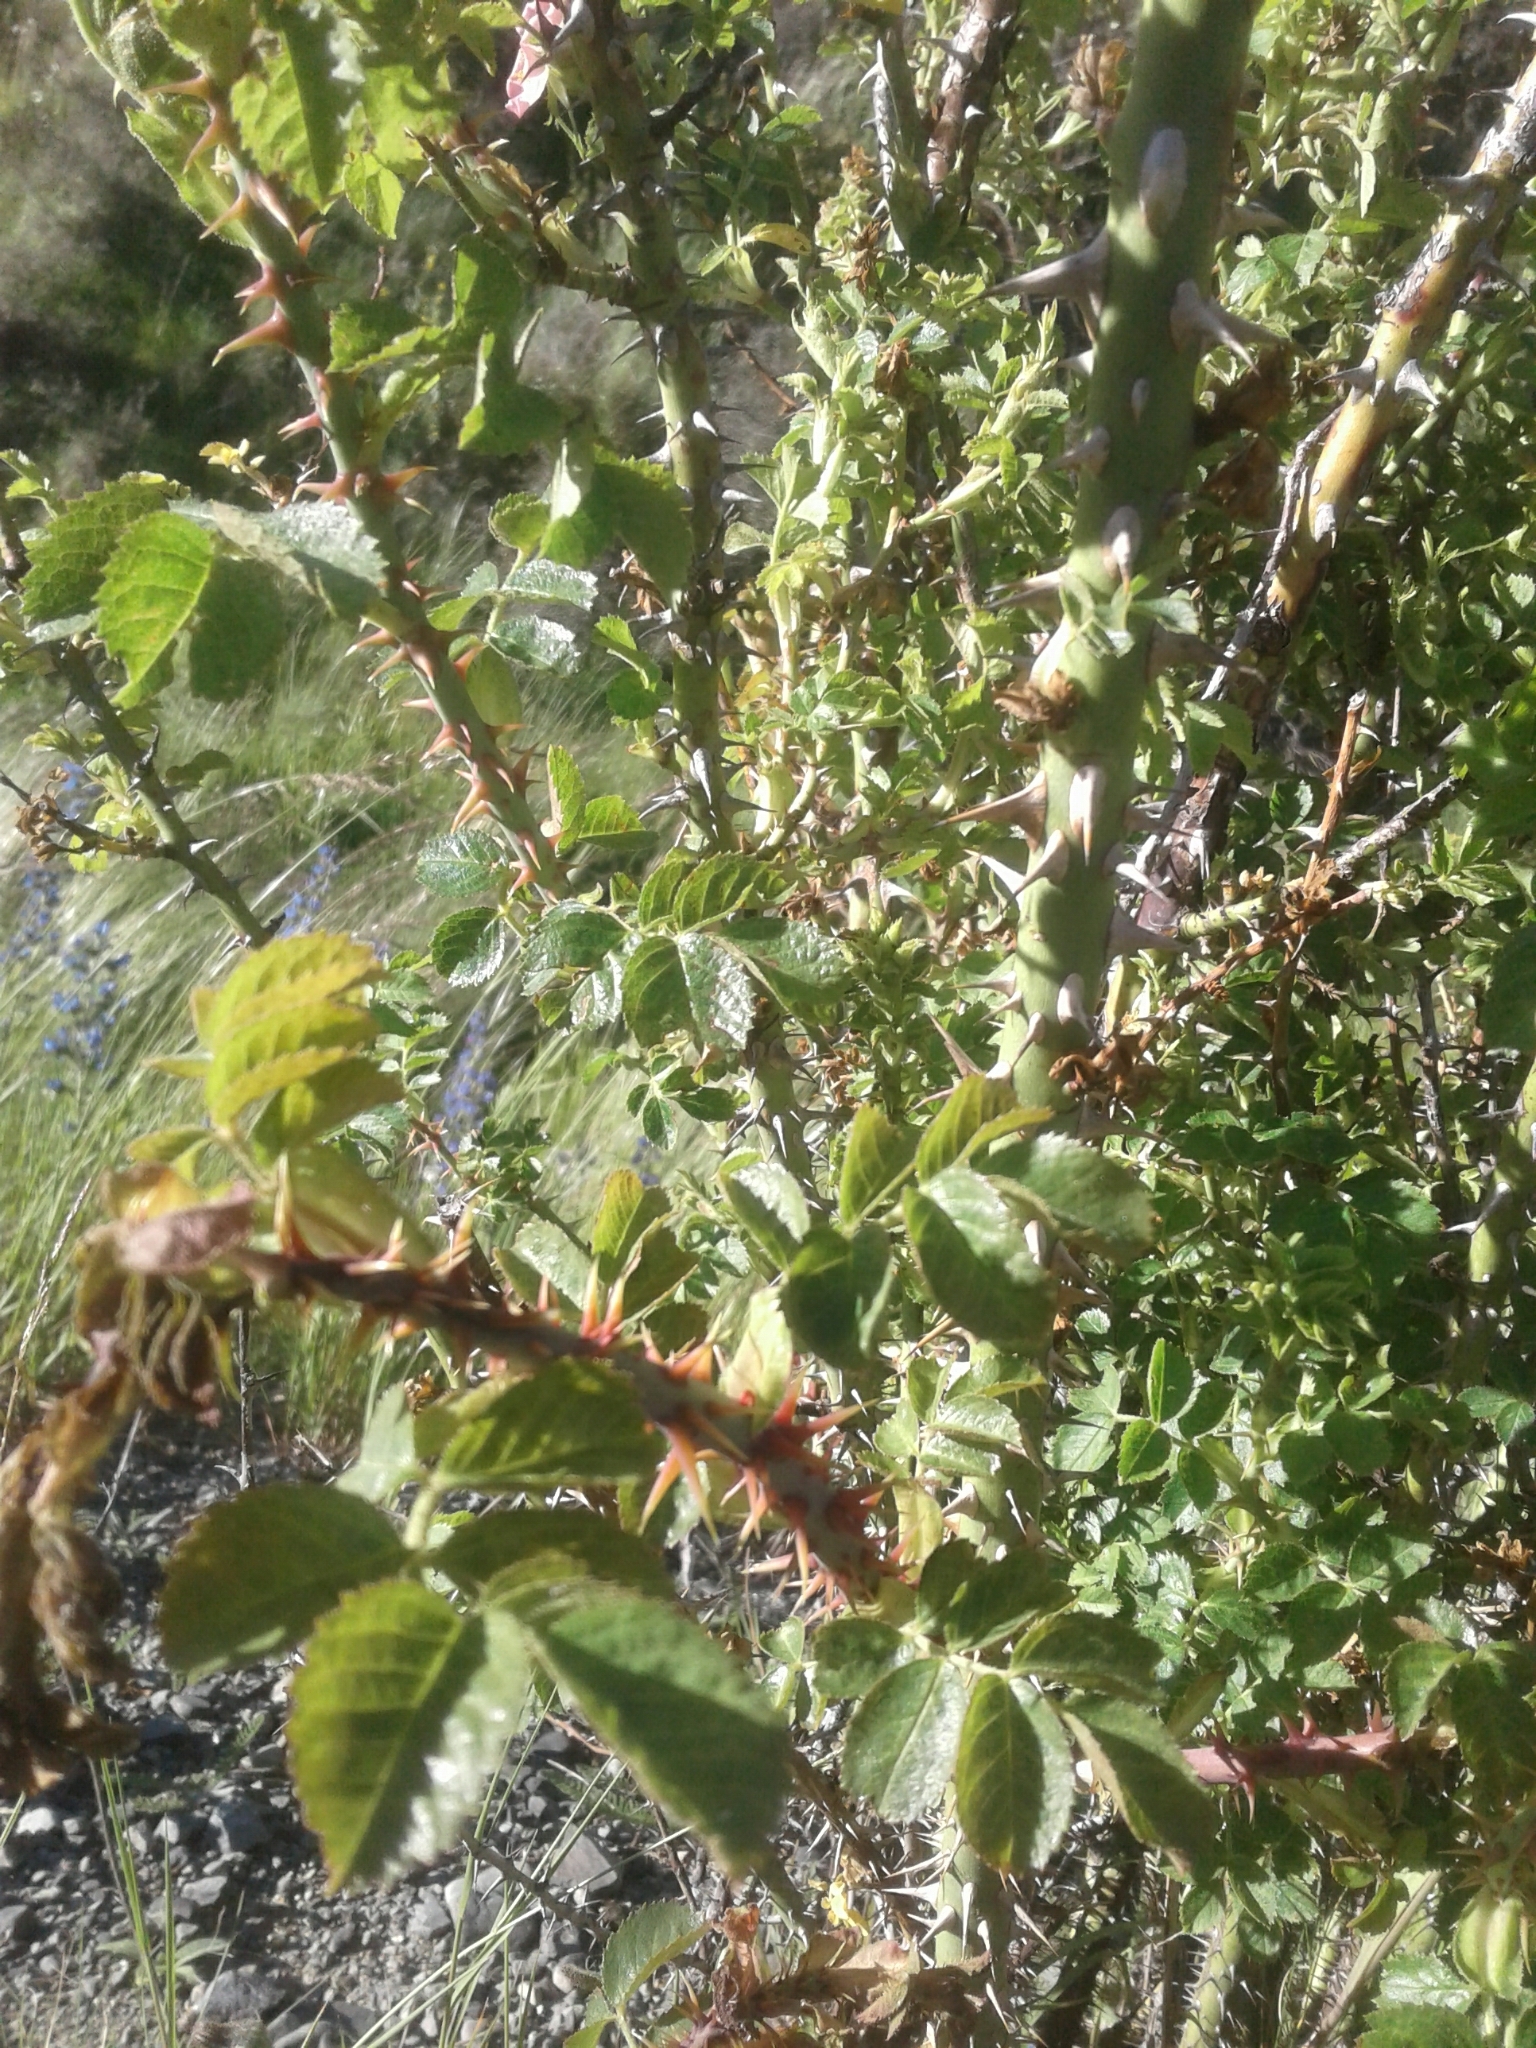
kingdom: Plantae
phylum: Tracheophyta
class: Magnoliopsida
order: Rosales
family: Rosaceae
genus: Rosa
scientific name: Rosa
